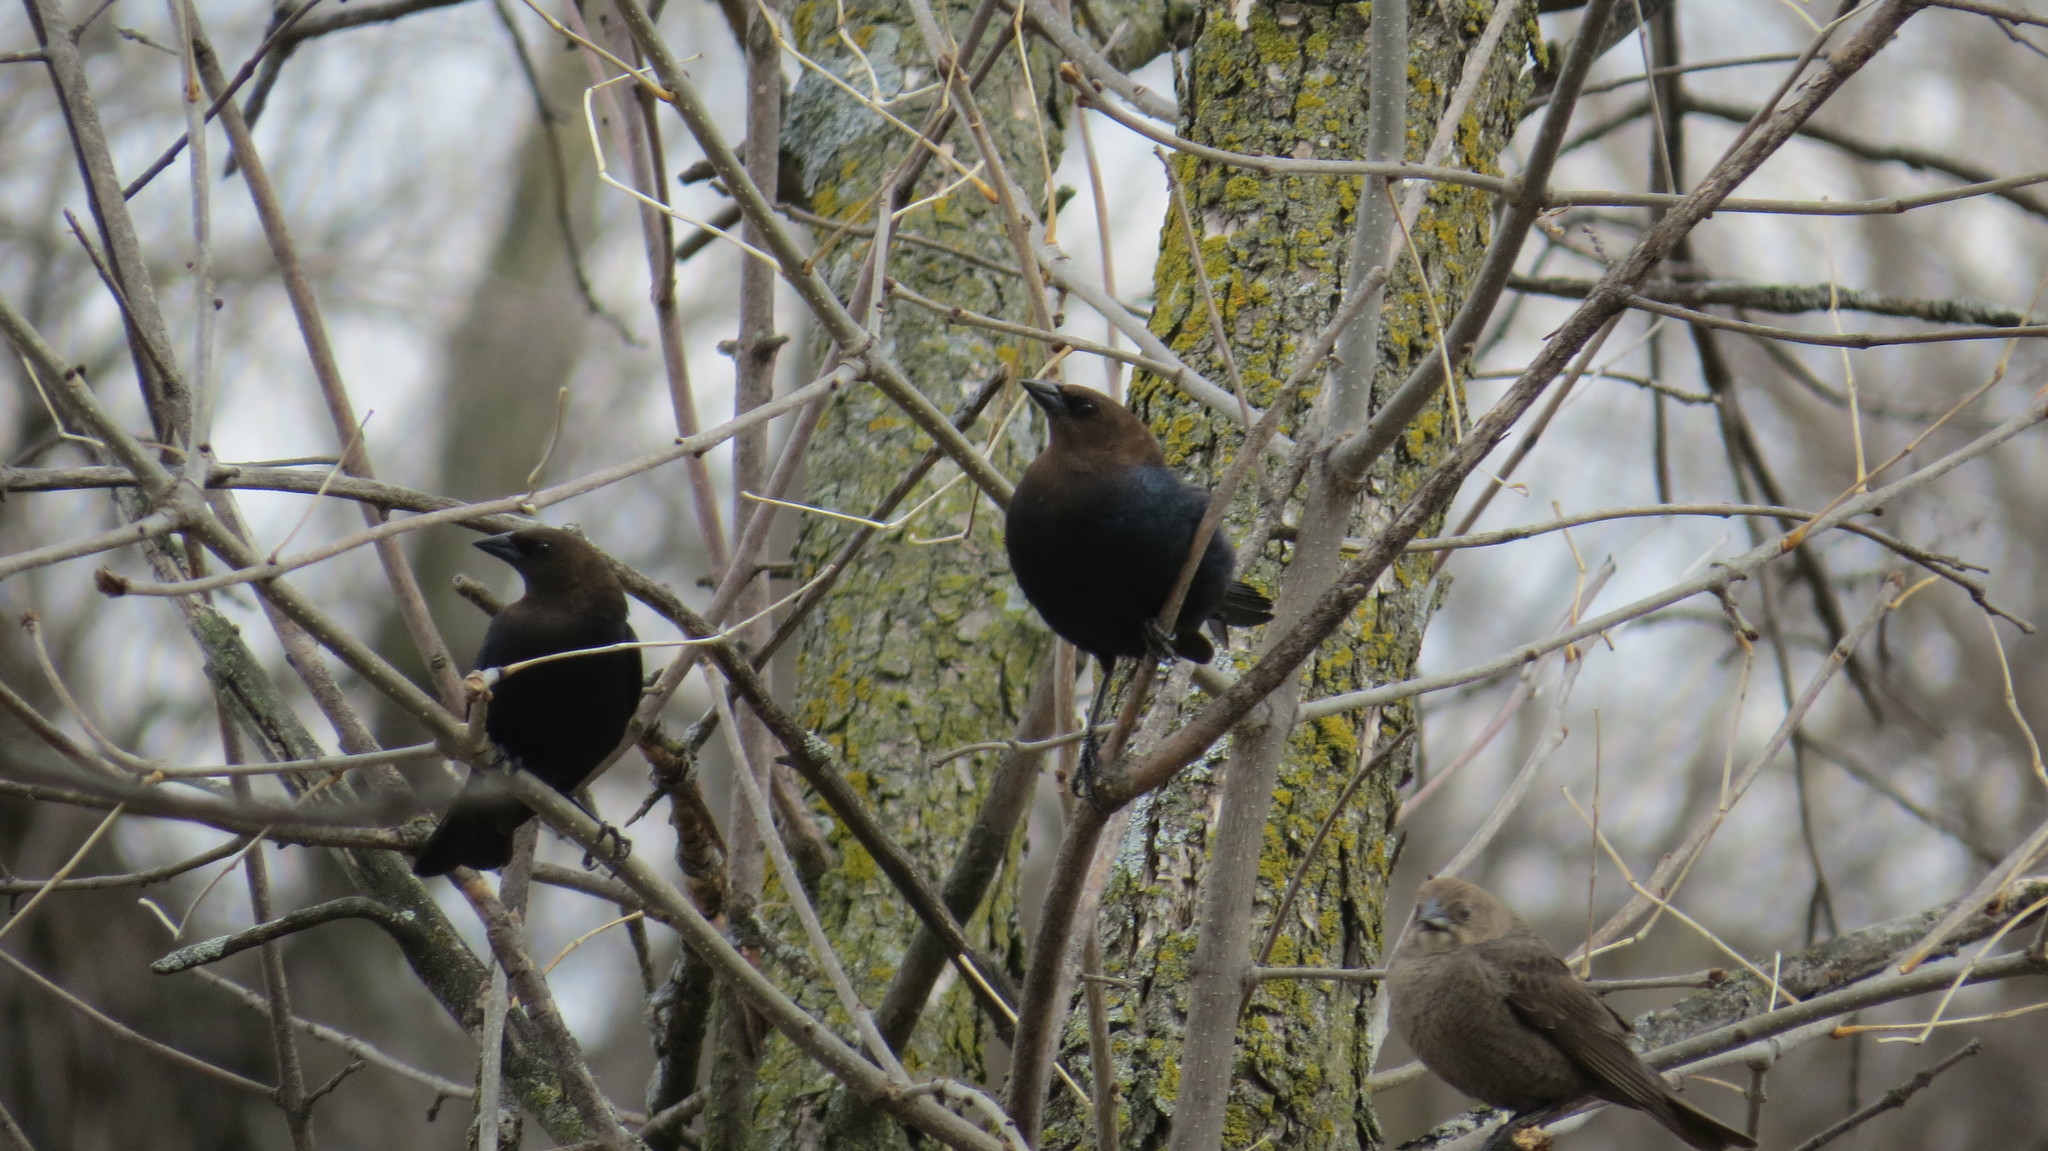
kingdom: Animalia
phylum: Chordata
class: Aves
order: Passeriformes
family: Icteridae
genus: Molothrus
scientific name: Molothrus ater
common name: Brown-headed cowbird
